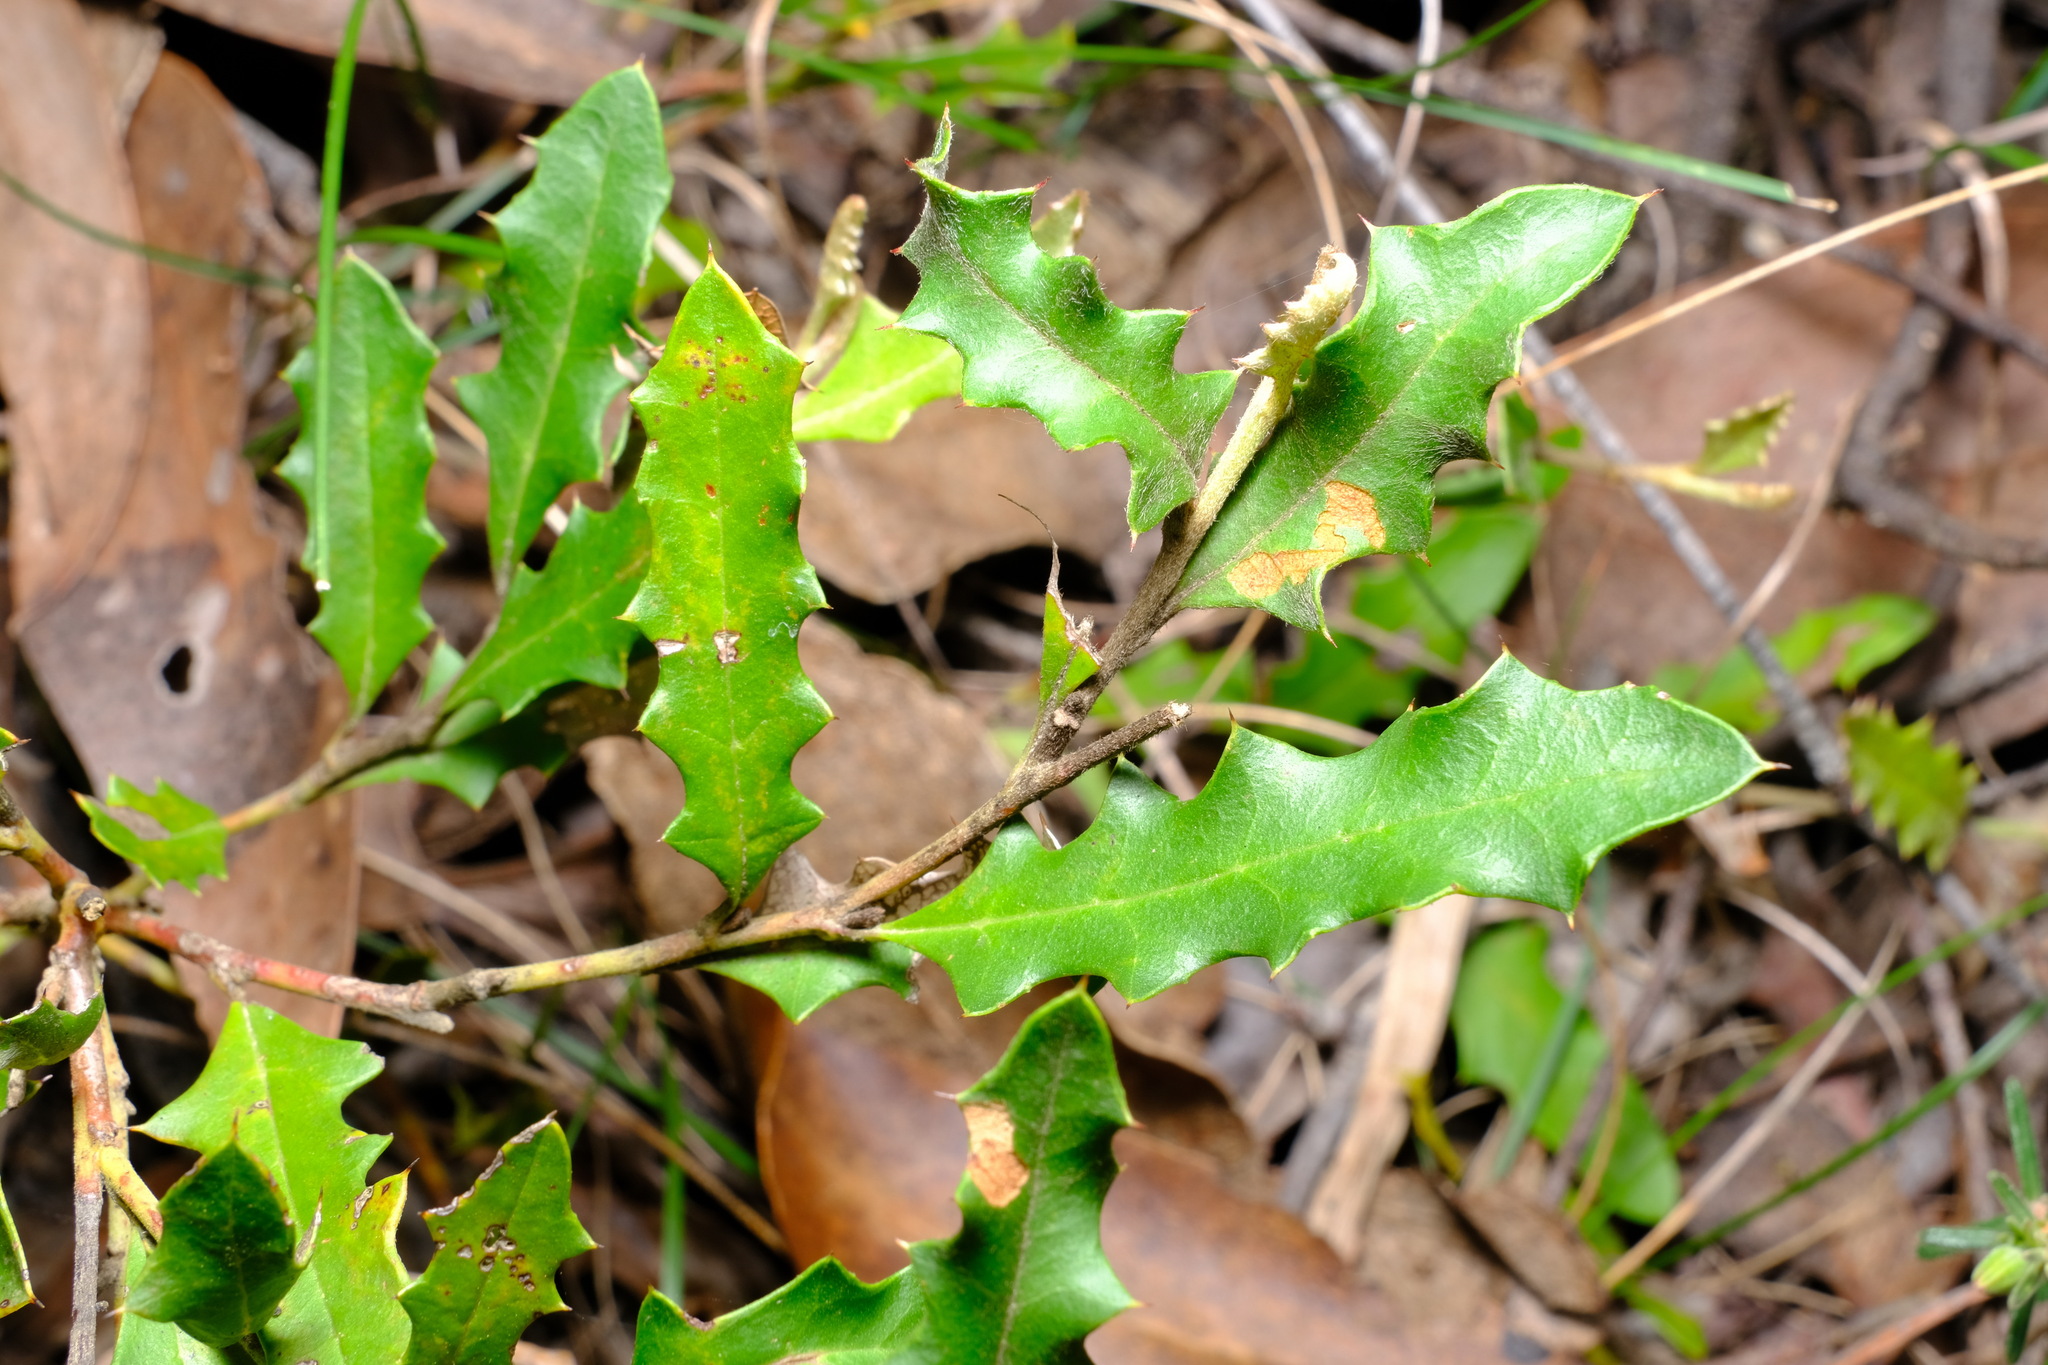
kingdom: Plantae
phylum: Tracheophyta
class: Magnoliopsida
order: Proteales
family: Proteaceae
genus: Grevillea
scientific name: Grevillea infecunda
